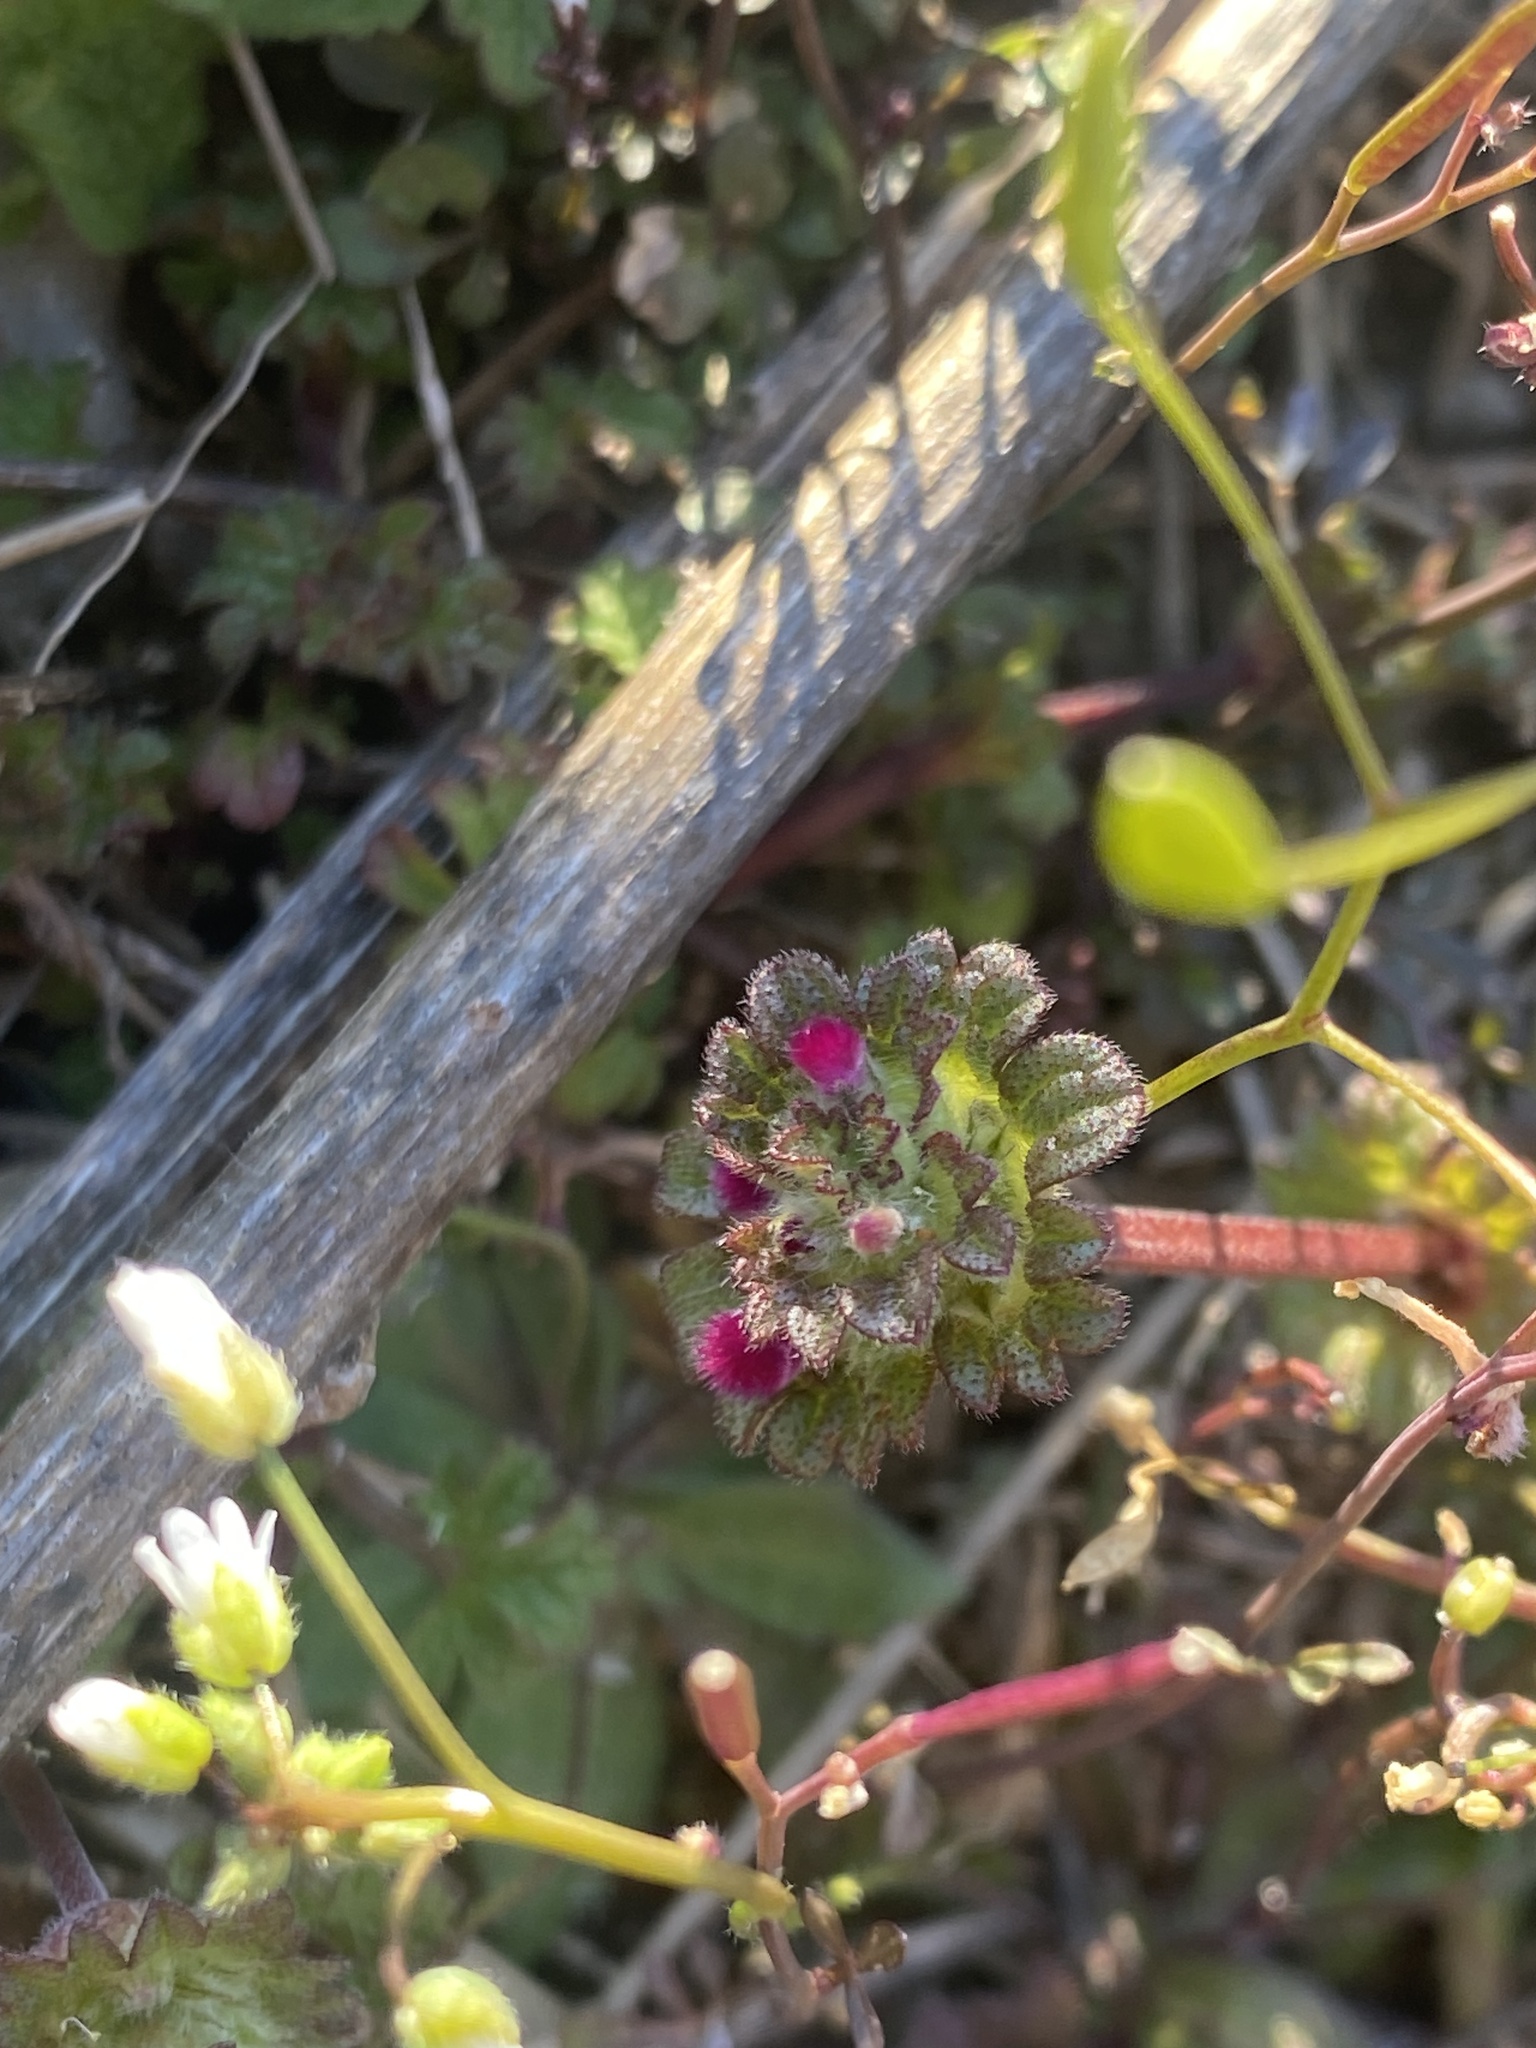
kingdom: Plantae
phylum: Tracheophyta
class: Magnoliopsida
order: Lamiales
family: Lamiaceae
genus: Lamium
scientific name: Lamium amplexicaule
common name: Henbit dead-nettle
